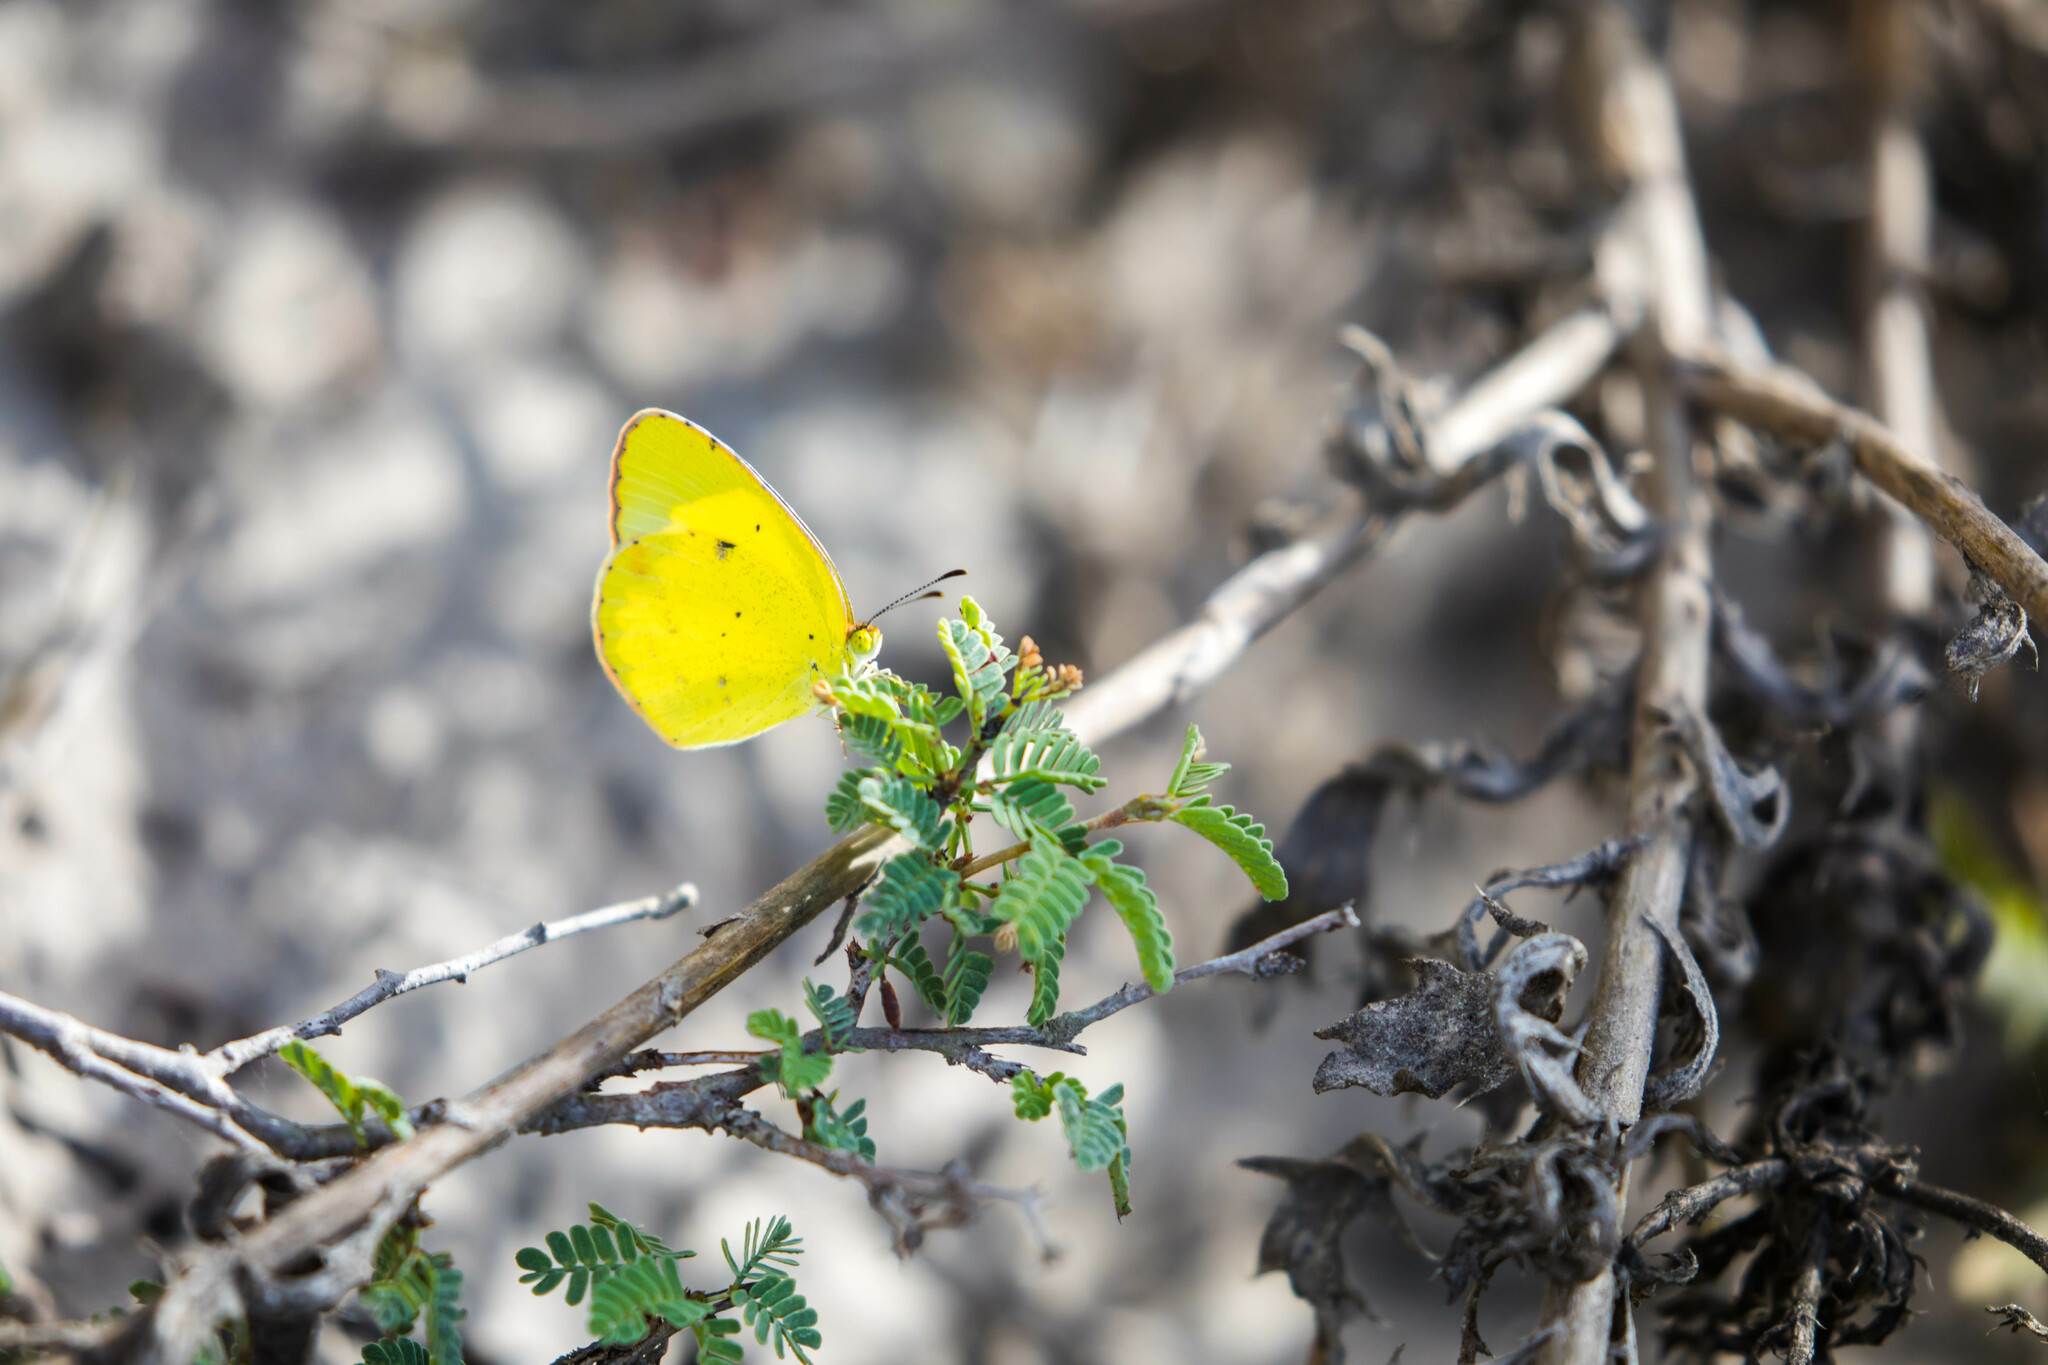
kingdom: Animalia
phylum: Arthropoda
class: Insecta
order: Lepidoptera
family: Pieridae
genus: Pyrisitia
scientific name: Pyrisitia lisa
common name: Little yellow
